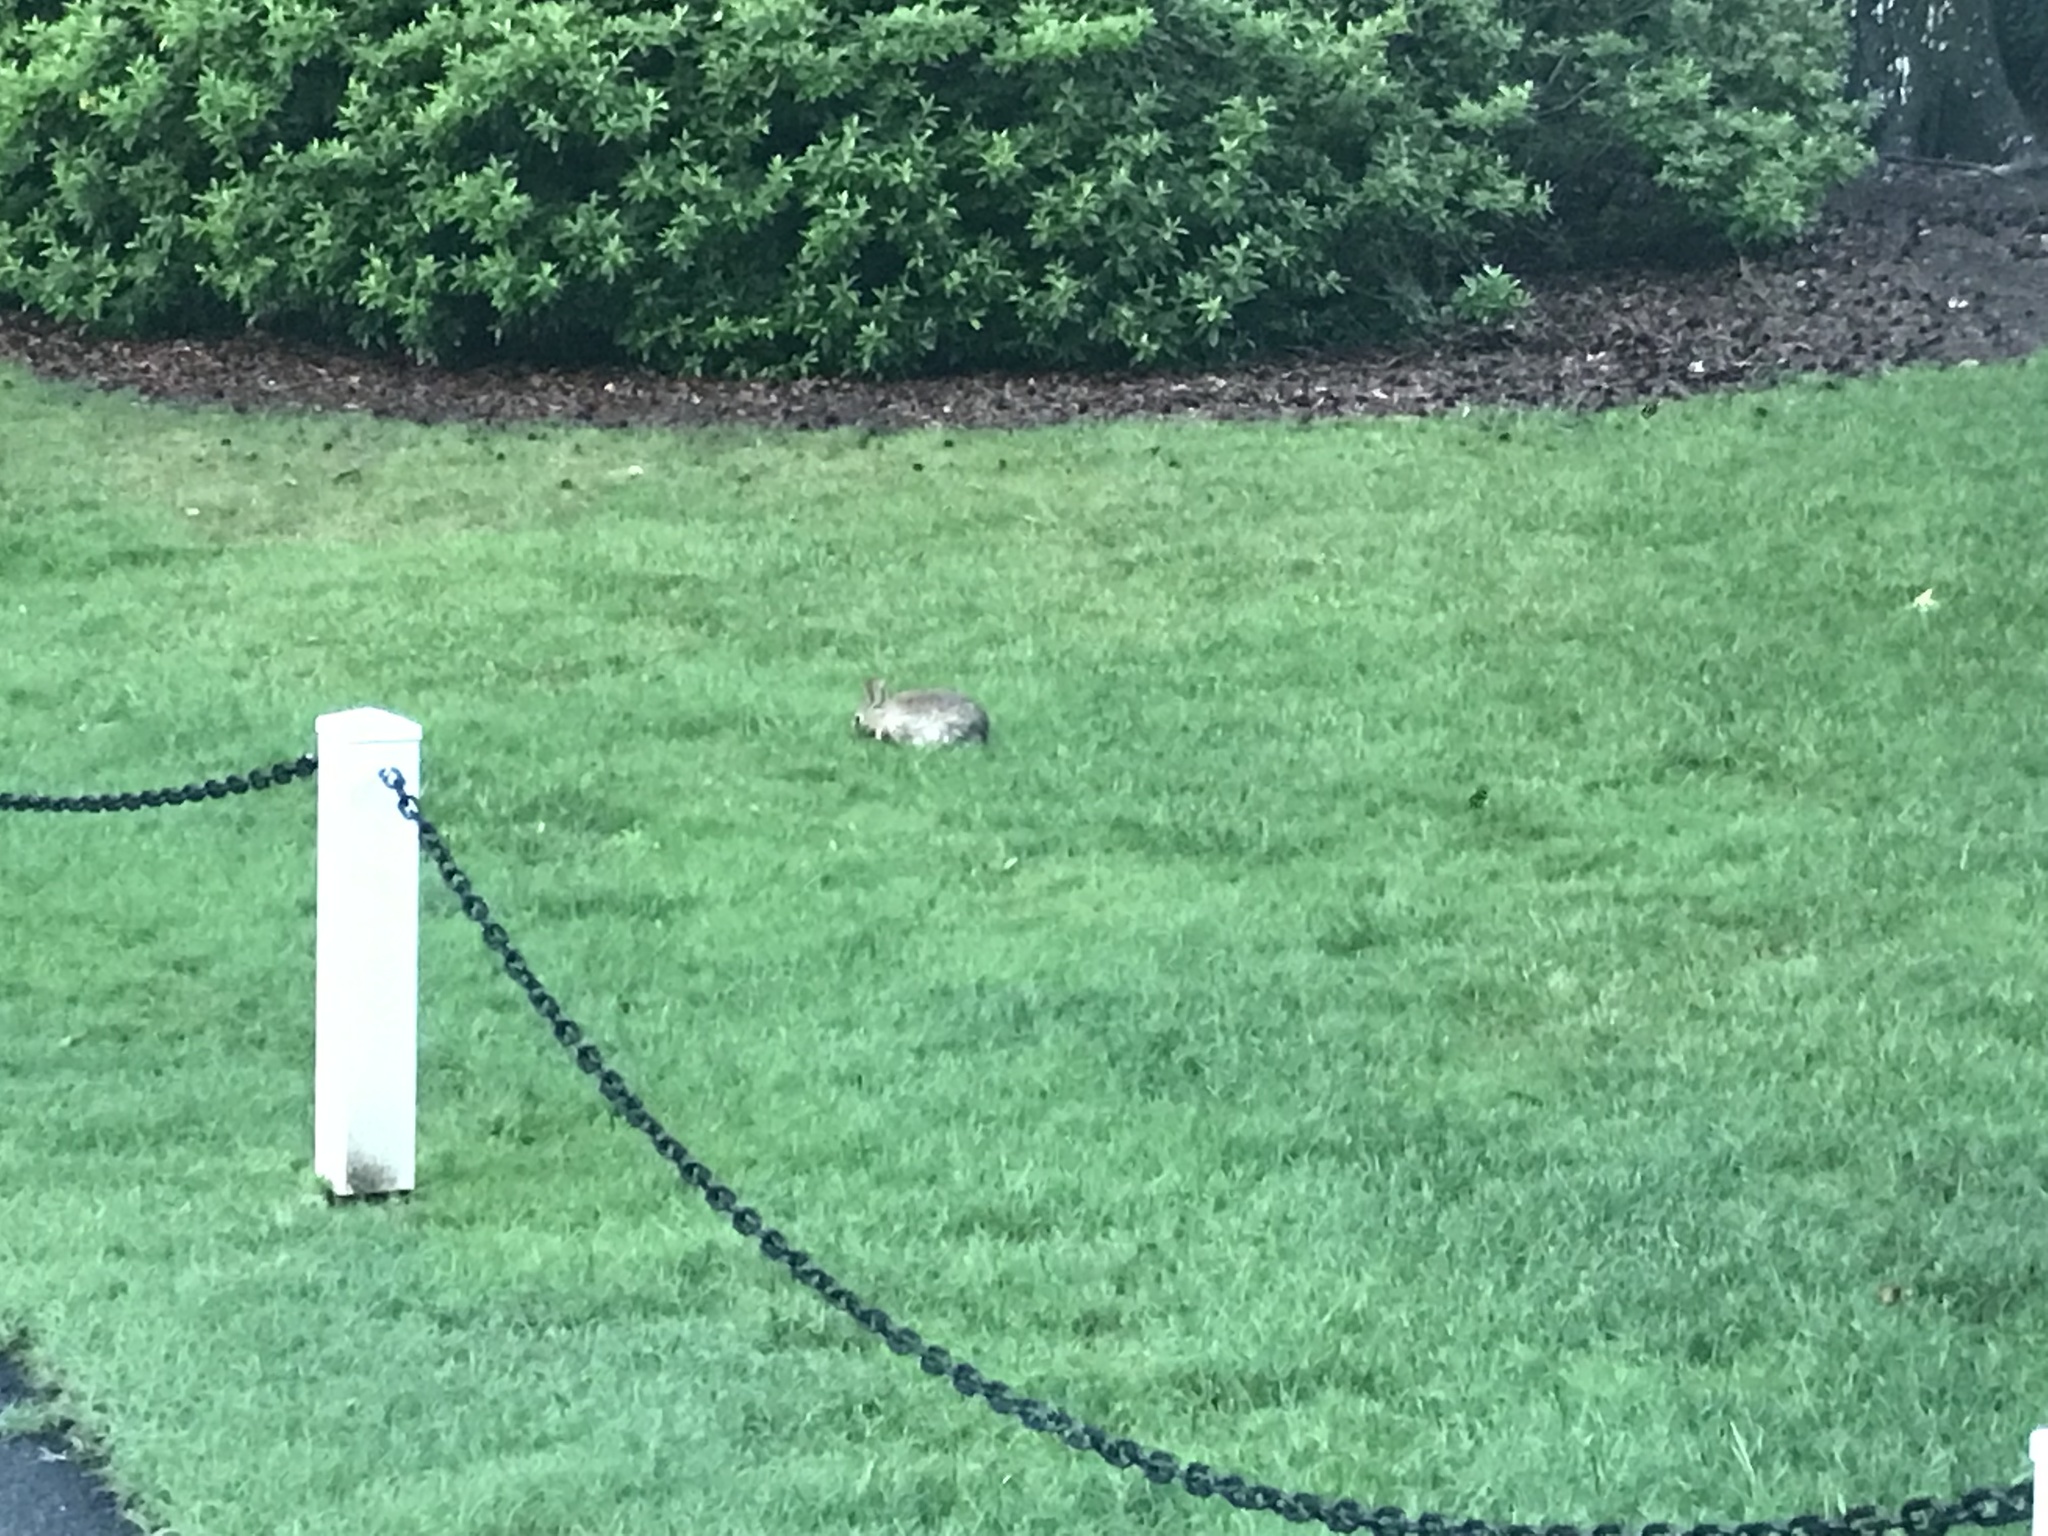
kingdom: Animalia
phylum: Chordata
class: Mammalia
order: Lagomorpha
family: Leporidae
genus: Sylvilagus
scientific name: Sylvilagus floridanus
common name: Eastern cottontail
